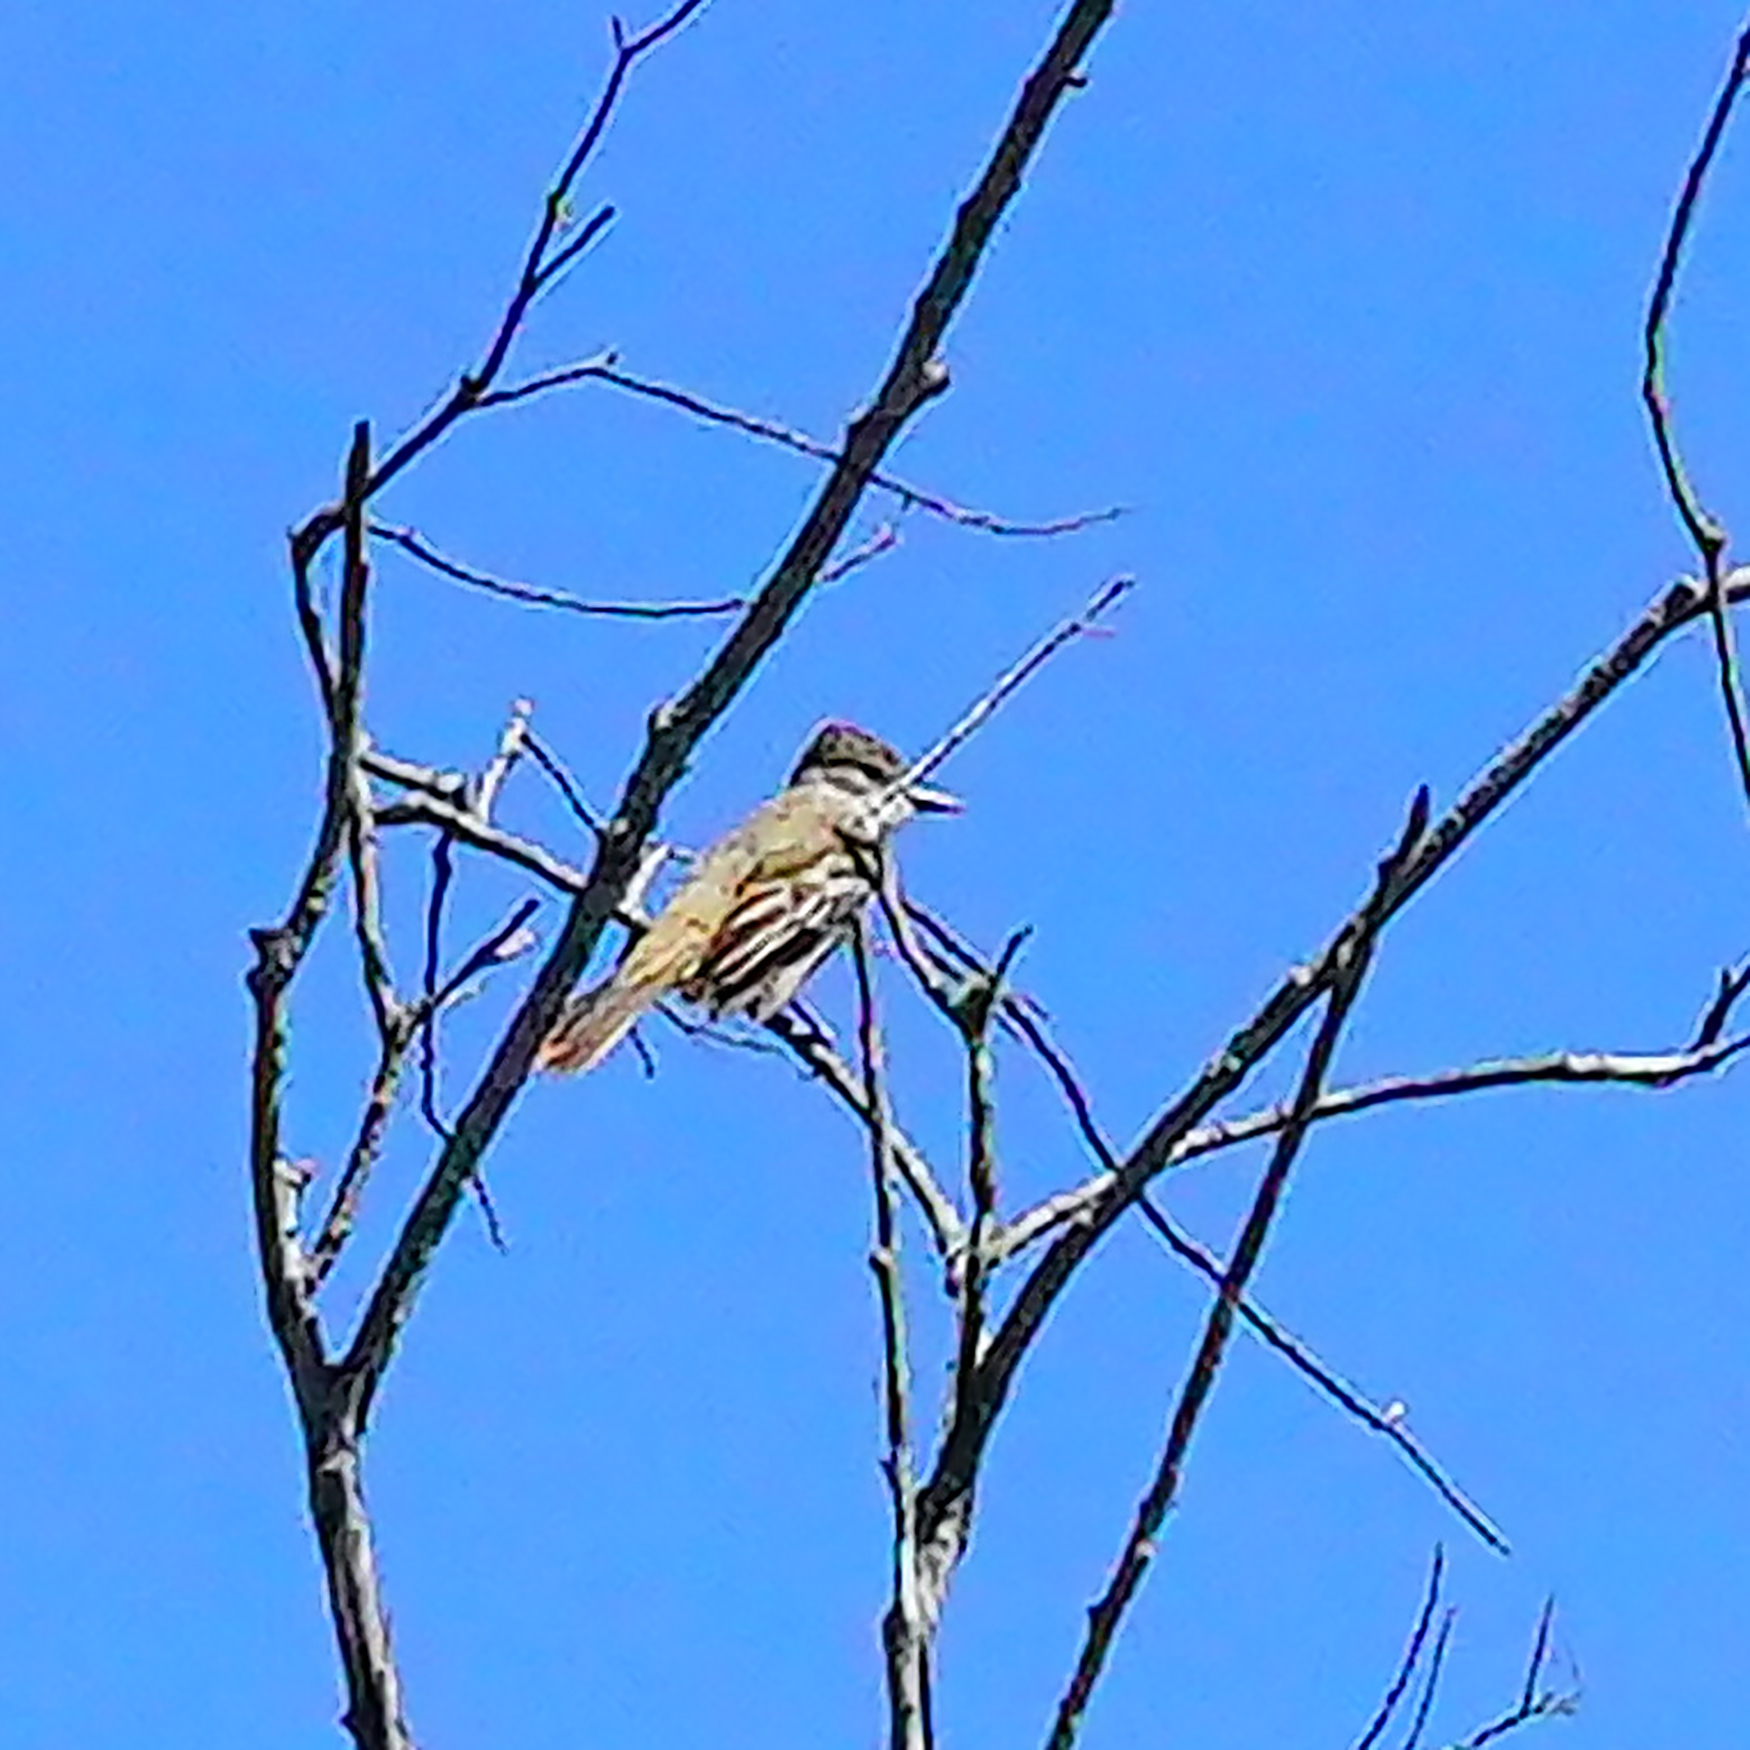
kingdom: Animalia
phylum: Chordata
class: Aves
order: Passeriformes
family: Tyrannidae
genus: Myiarchus
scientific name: Myiarchus cinerascens
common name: Ash-throated flycatcher
